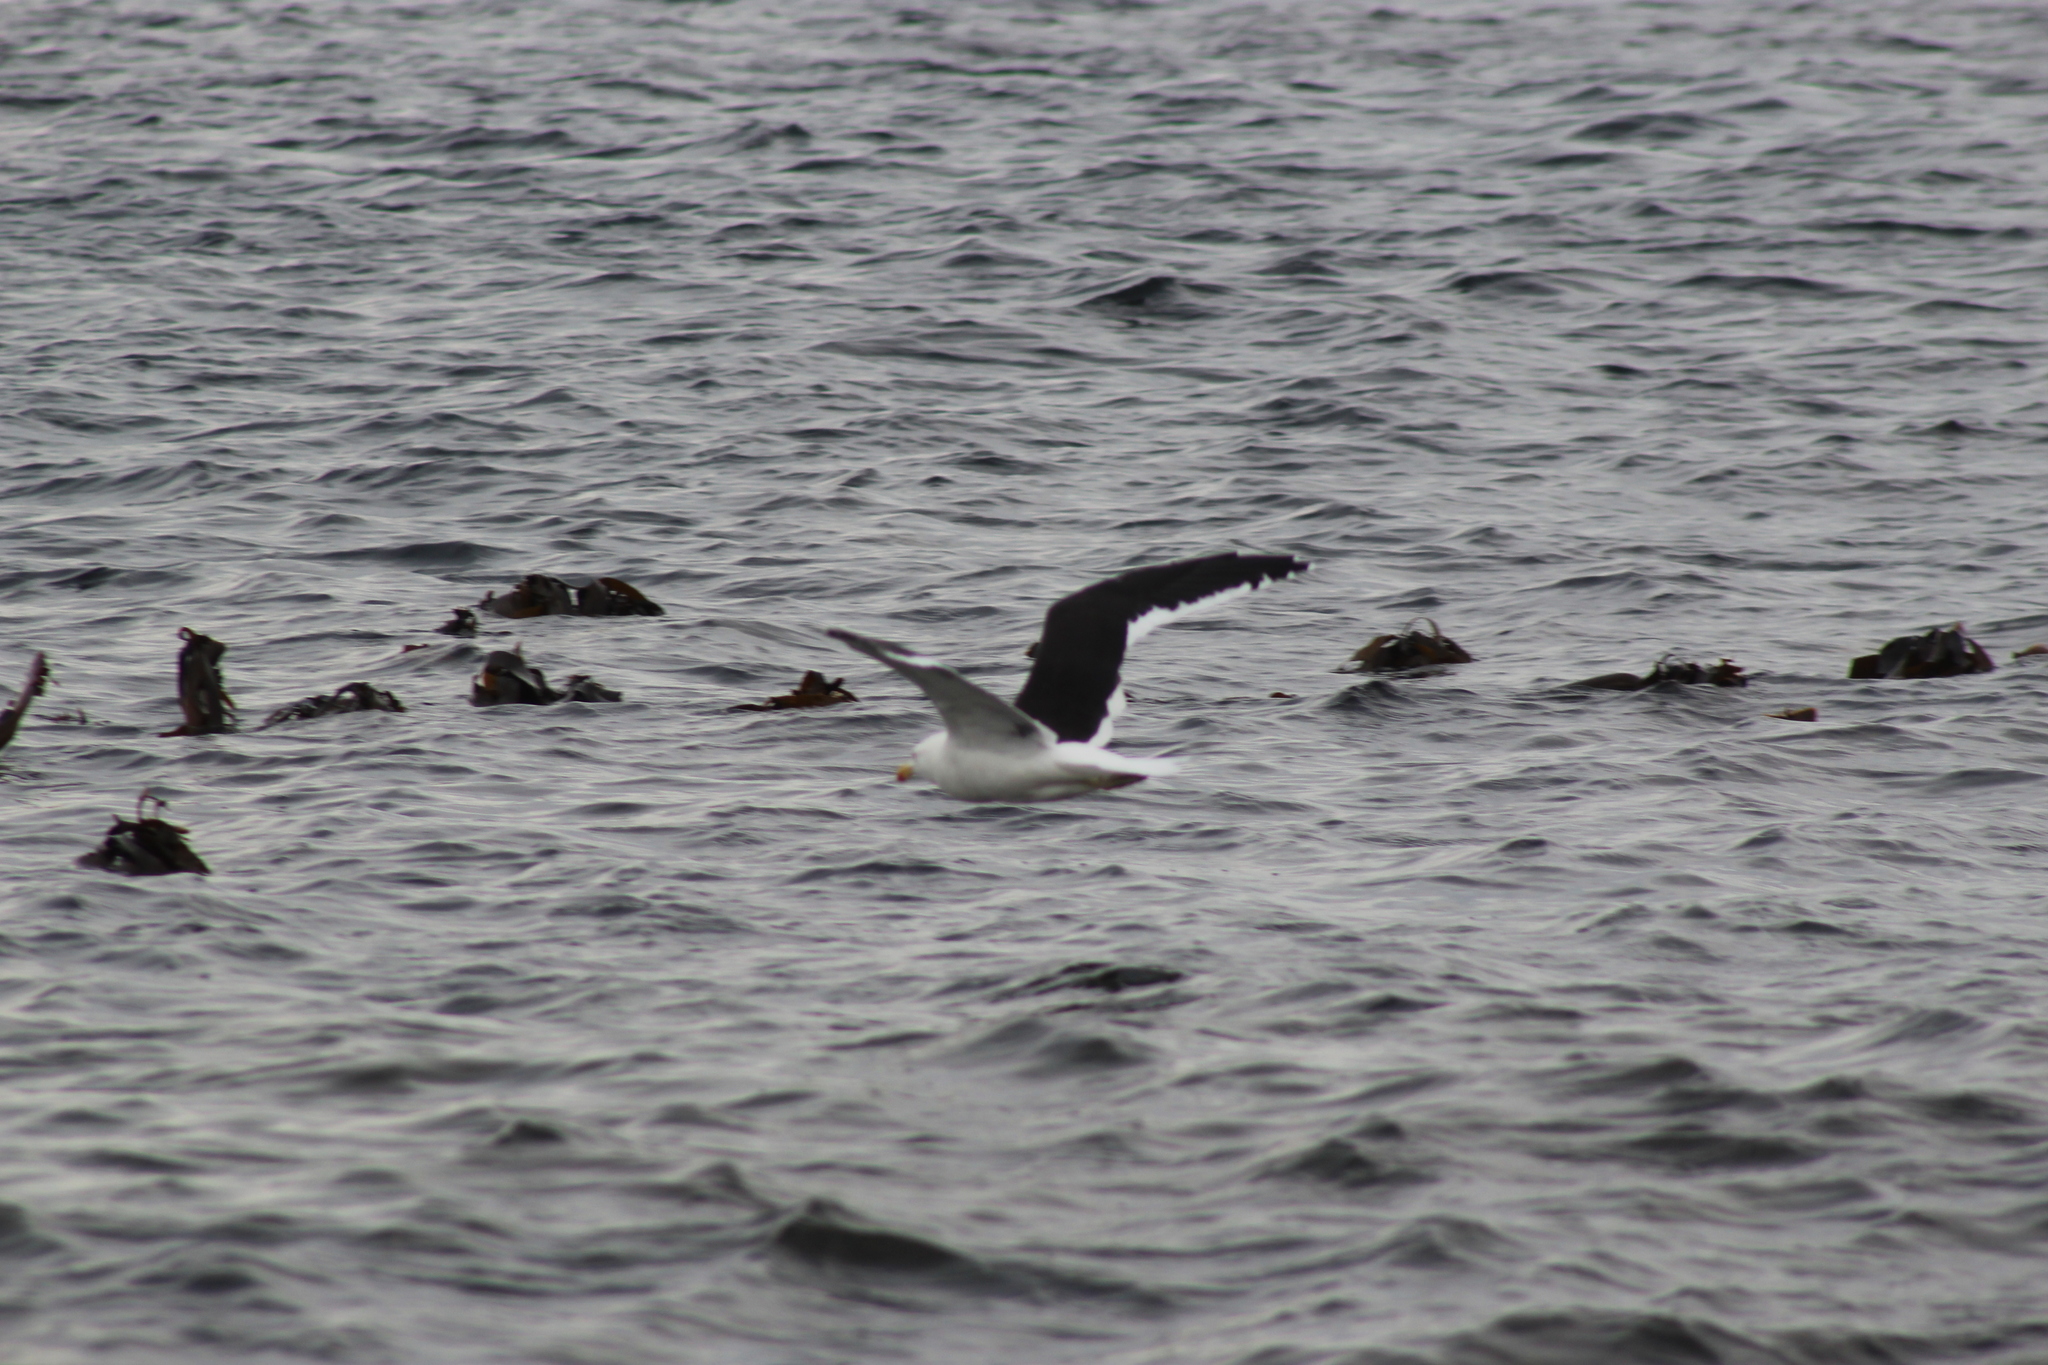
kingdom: Animalia
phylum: Chordata
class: Aves
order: Charadriiformes
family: Laridae
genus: Larus
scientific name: Larus dominicanus
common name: Kelp gull
